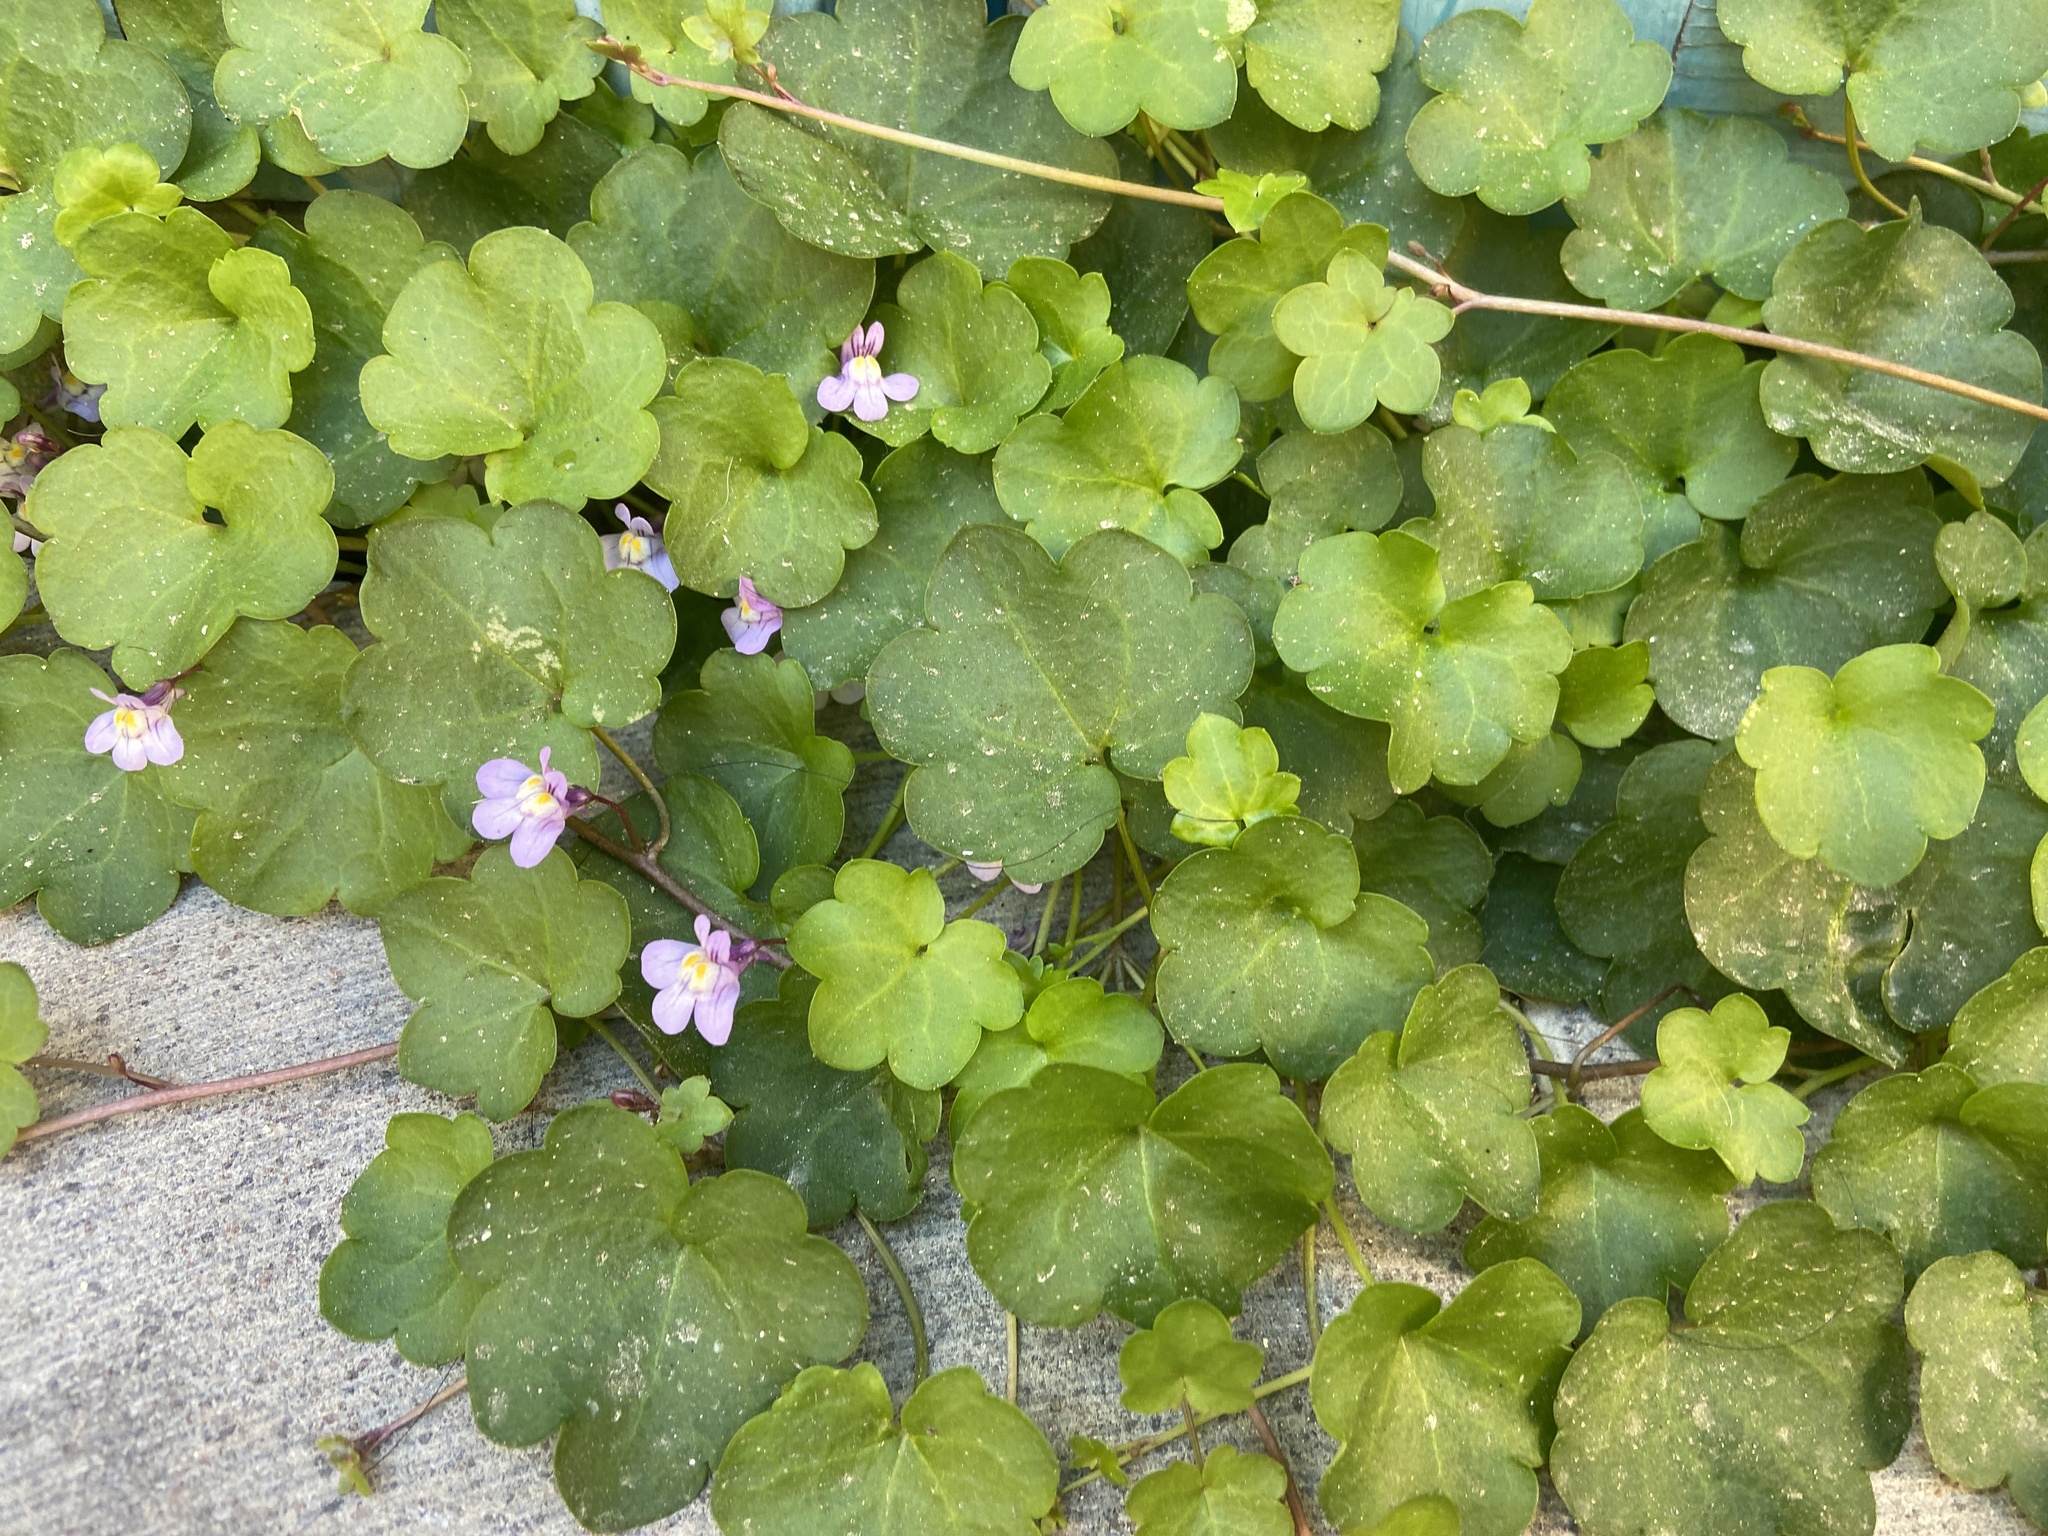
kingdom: Plantae
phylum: Tracheophyta
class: Magnoliopsida
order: Lamiales
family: Plantaginaceae
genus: Cymbalaria
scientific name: Cymbalaria muralis
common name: Ivy-leaved toadflax
